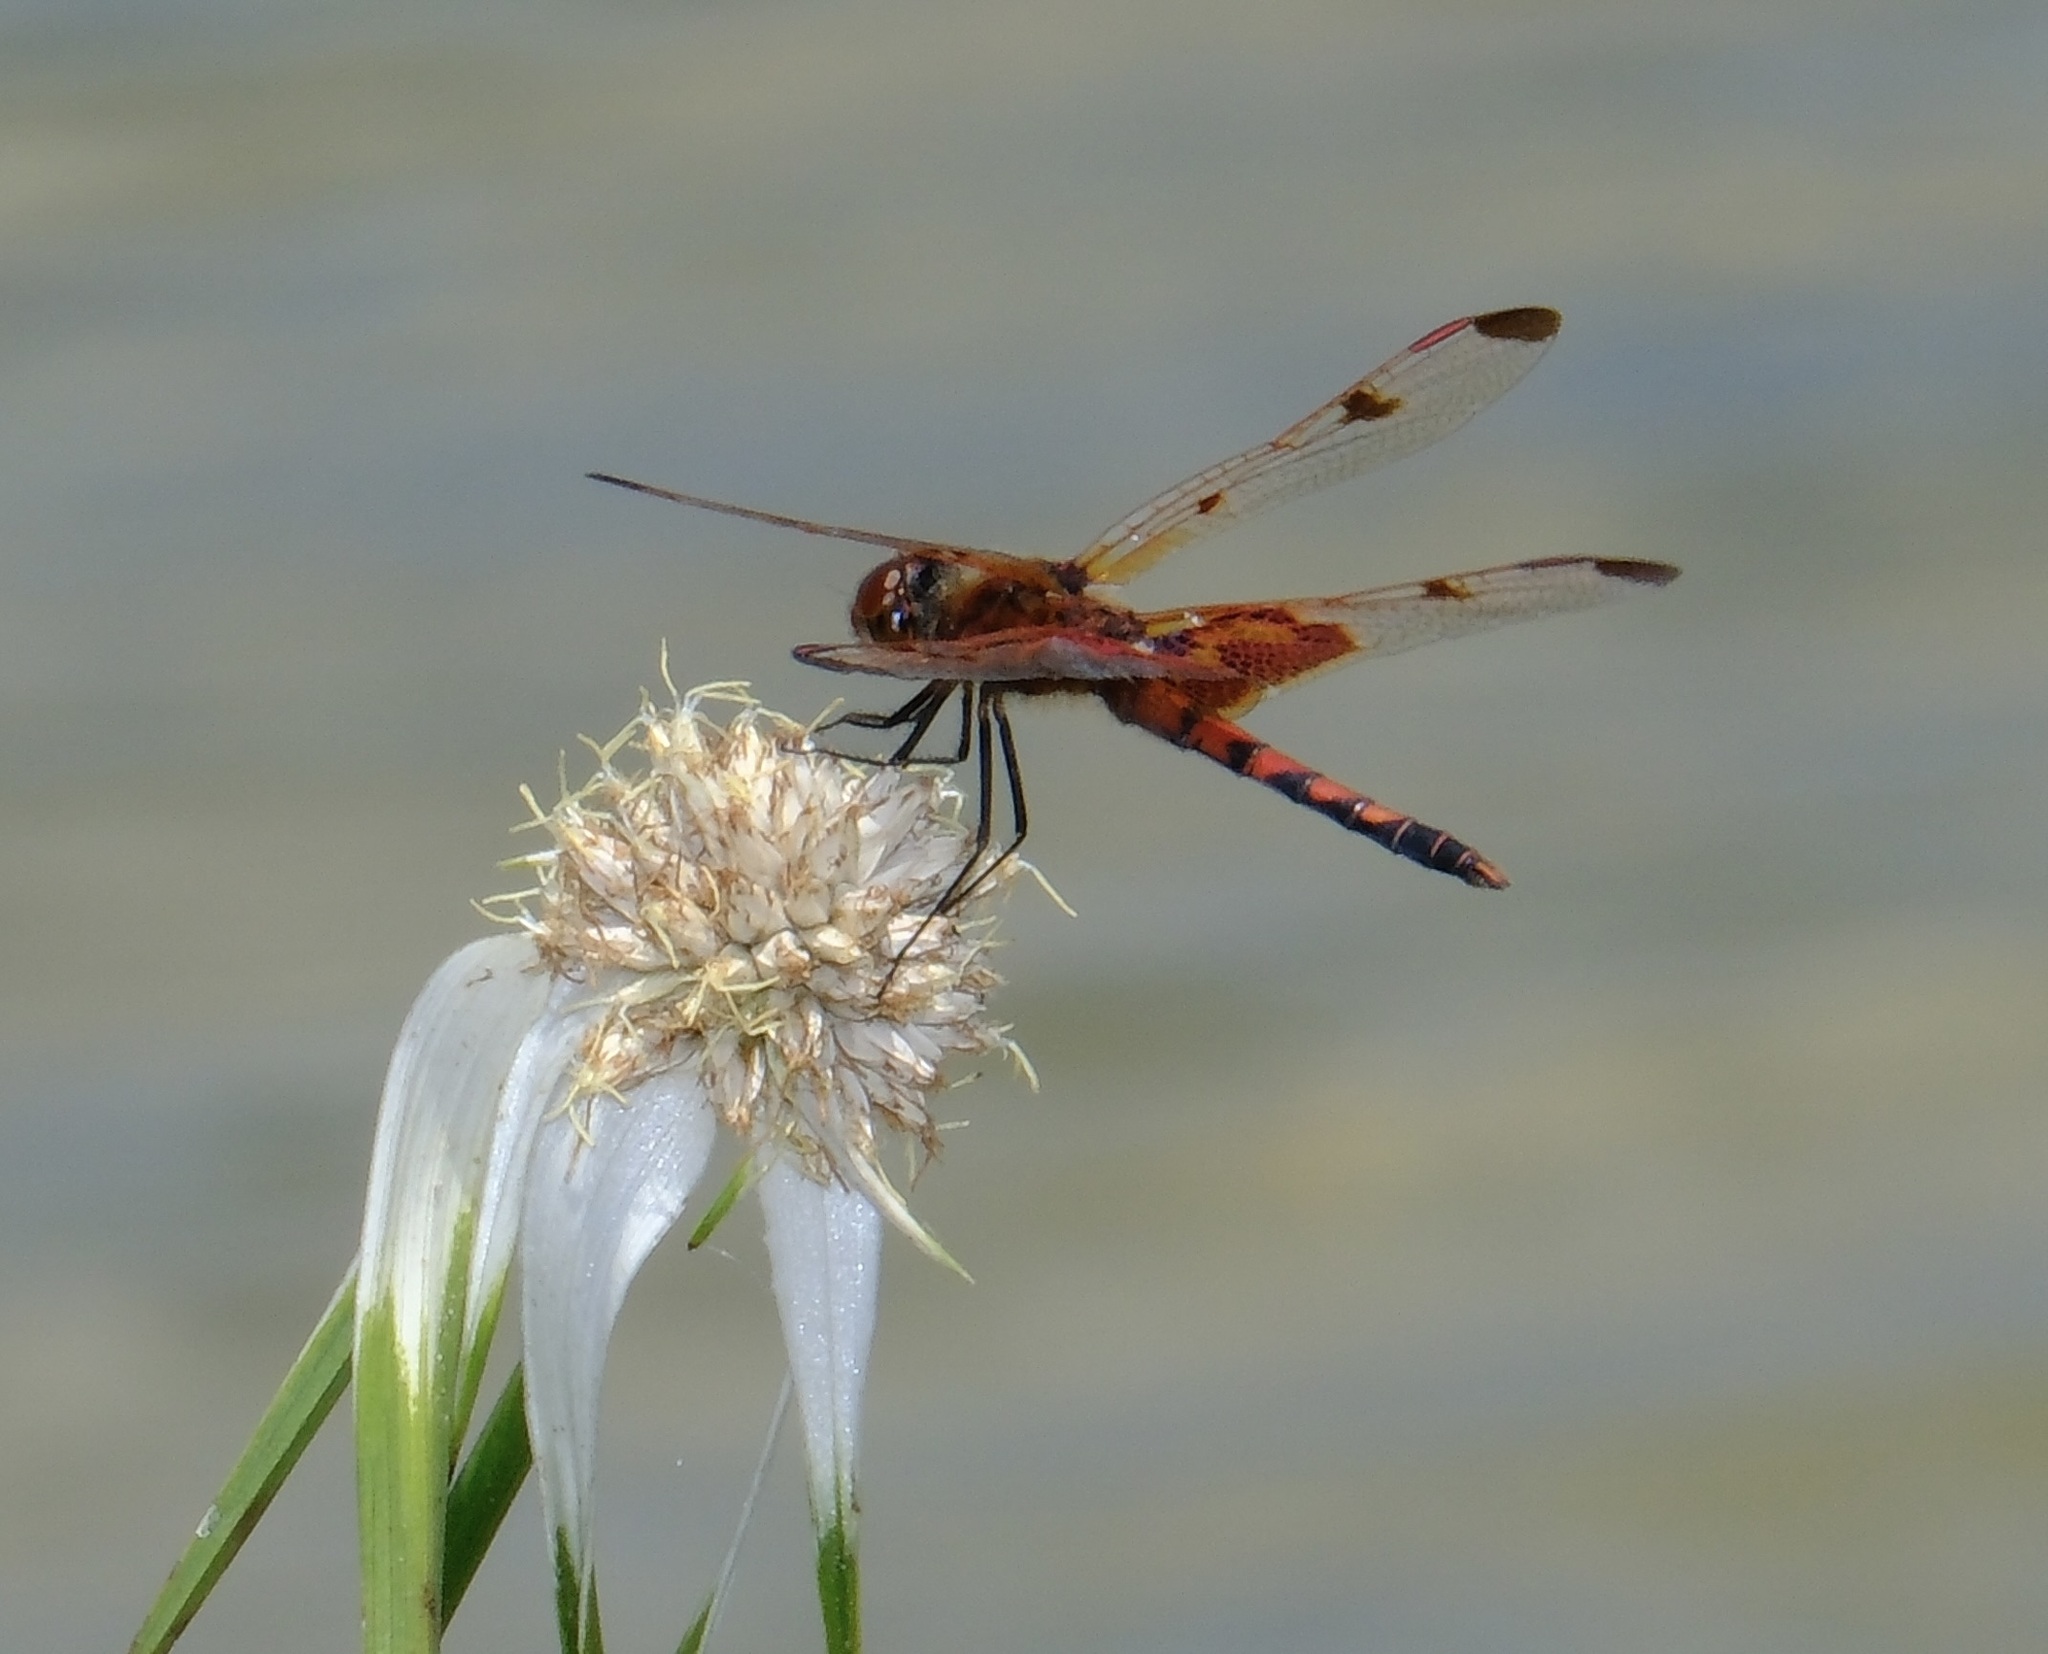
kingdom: Animalia
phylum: Arthropoda
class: Insecta
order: Odonata
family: Libellulidae
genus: Celithemis
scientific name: Celithemis elisa
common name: Calico pennant
